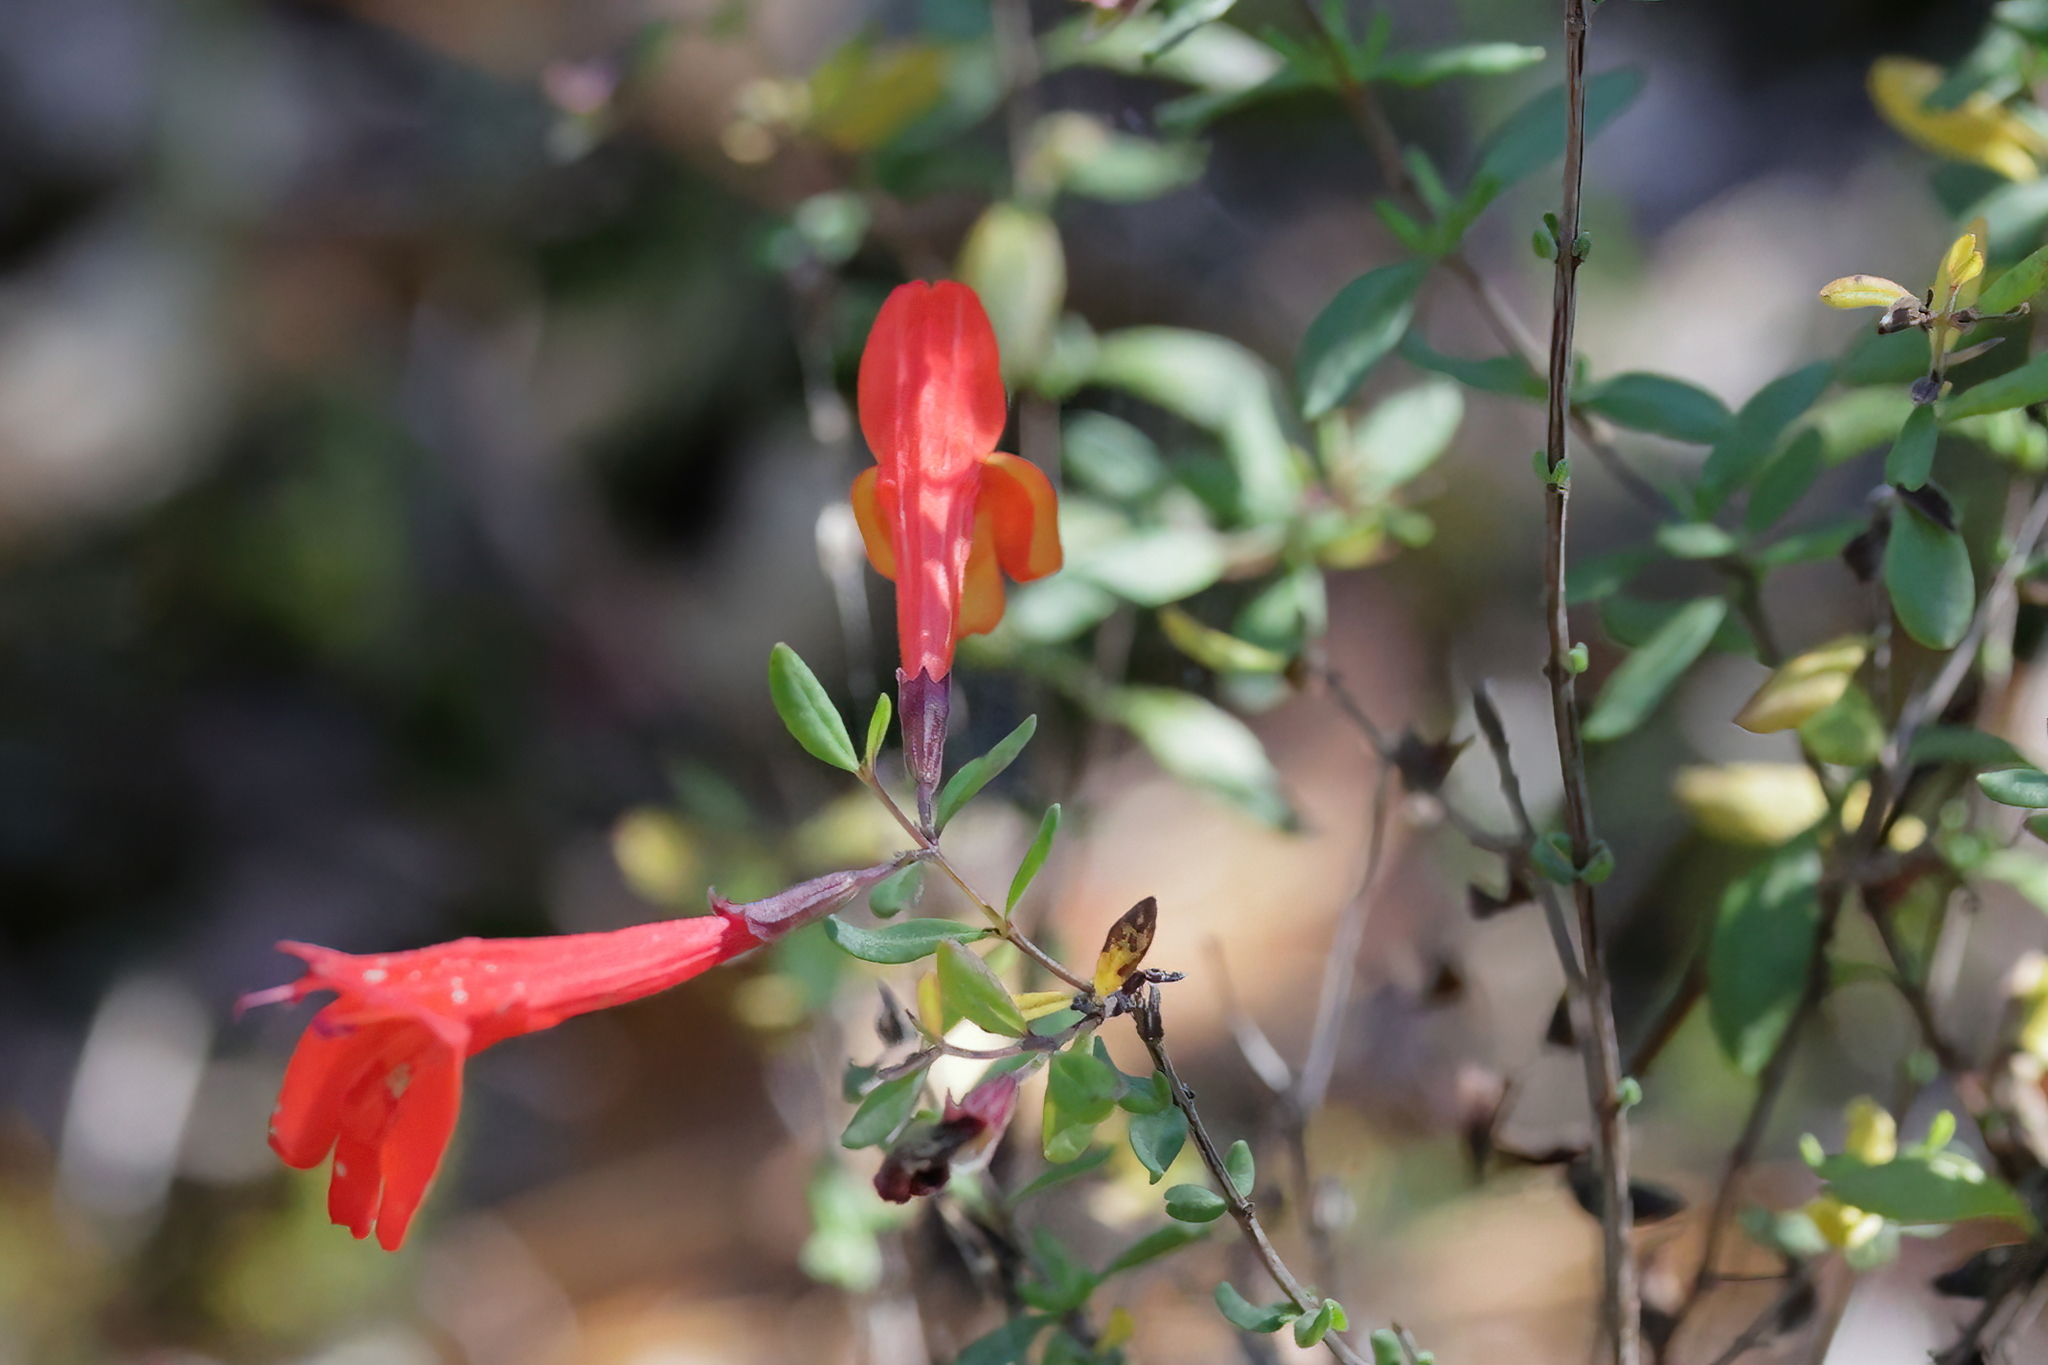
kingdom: Plantae
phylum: Tracheophyta
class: Magnoliopsida
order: Lamiales
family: Lamiaceae
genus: Clinopodium
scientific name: Clinopodium coccineum
